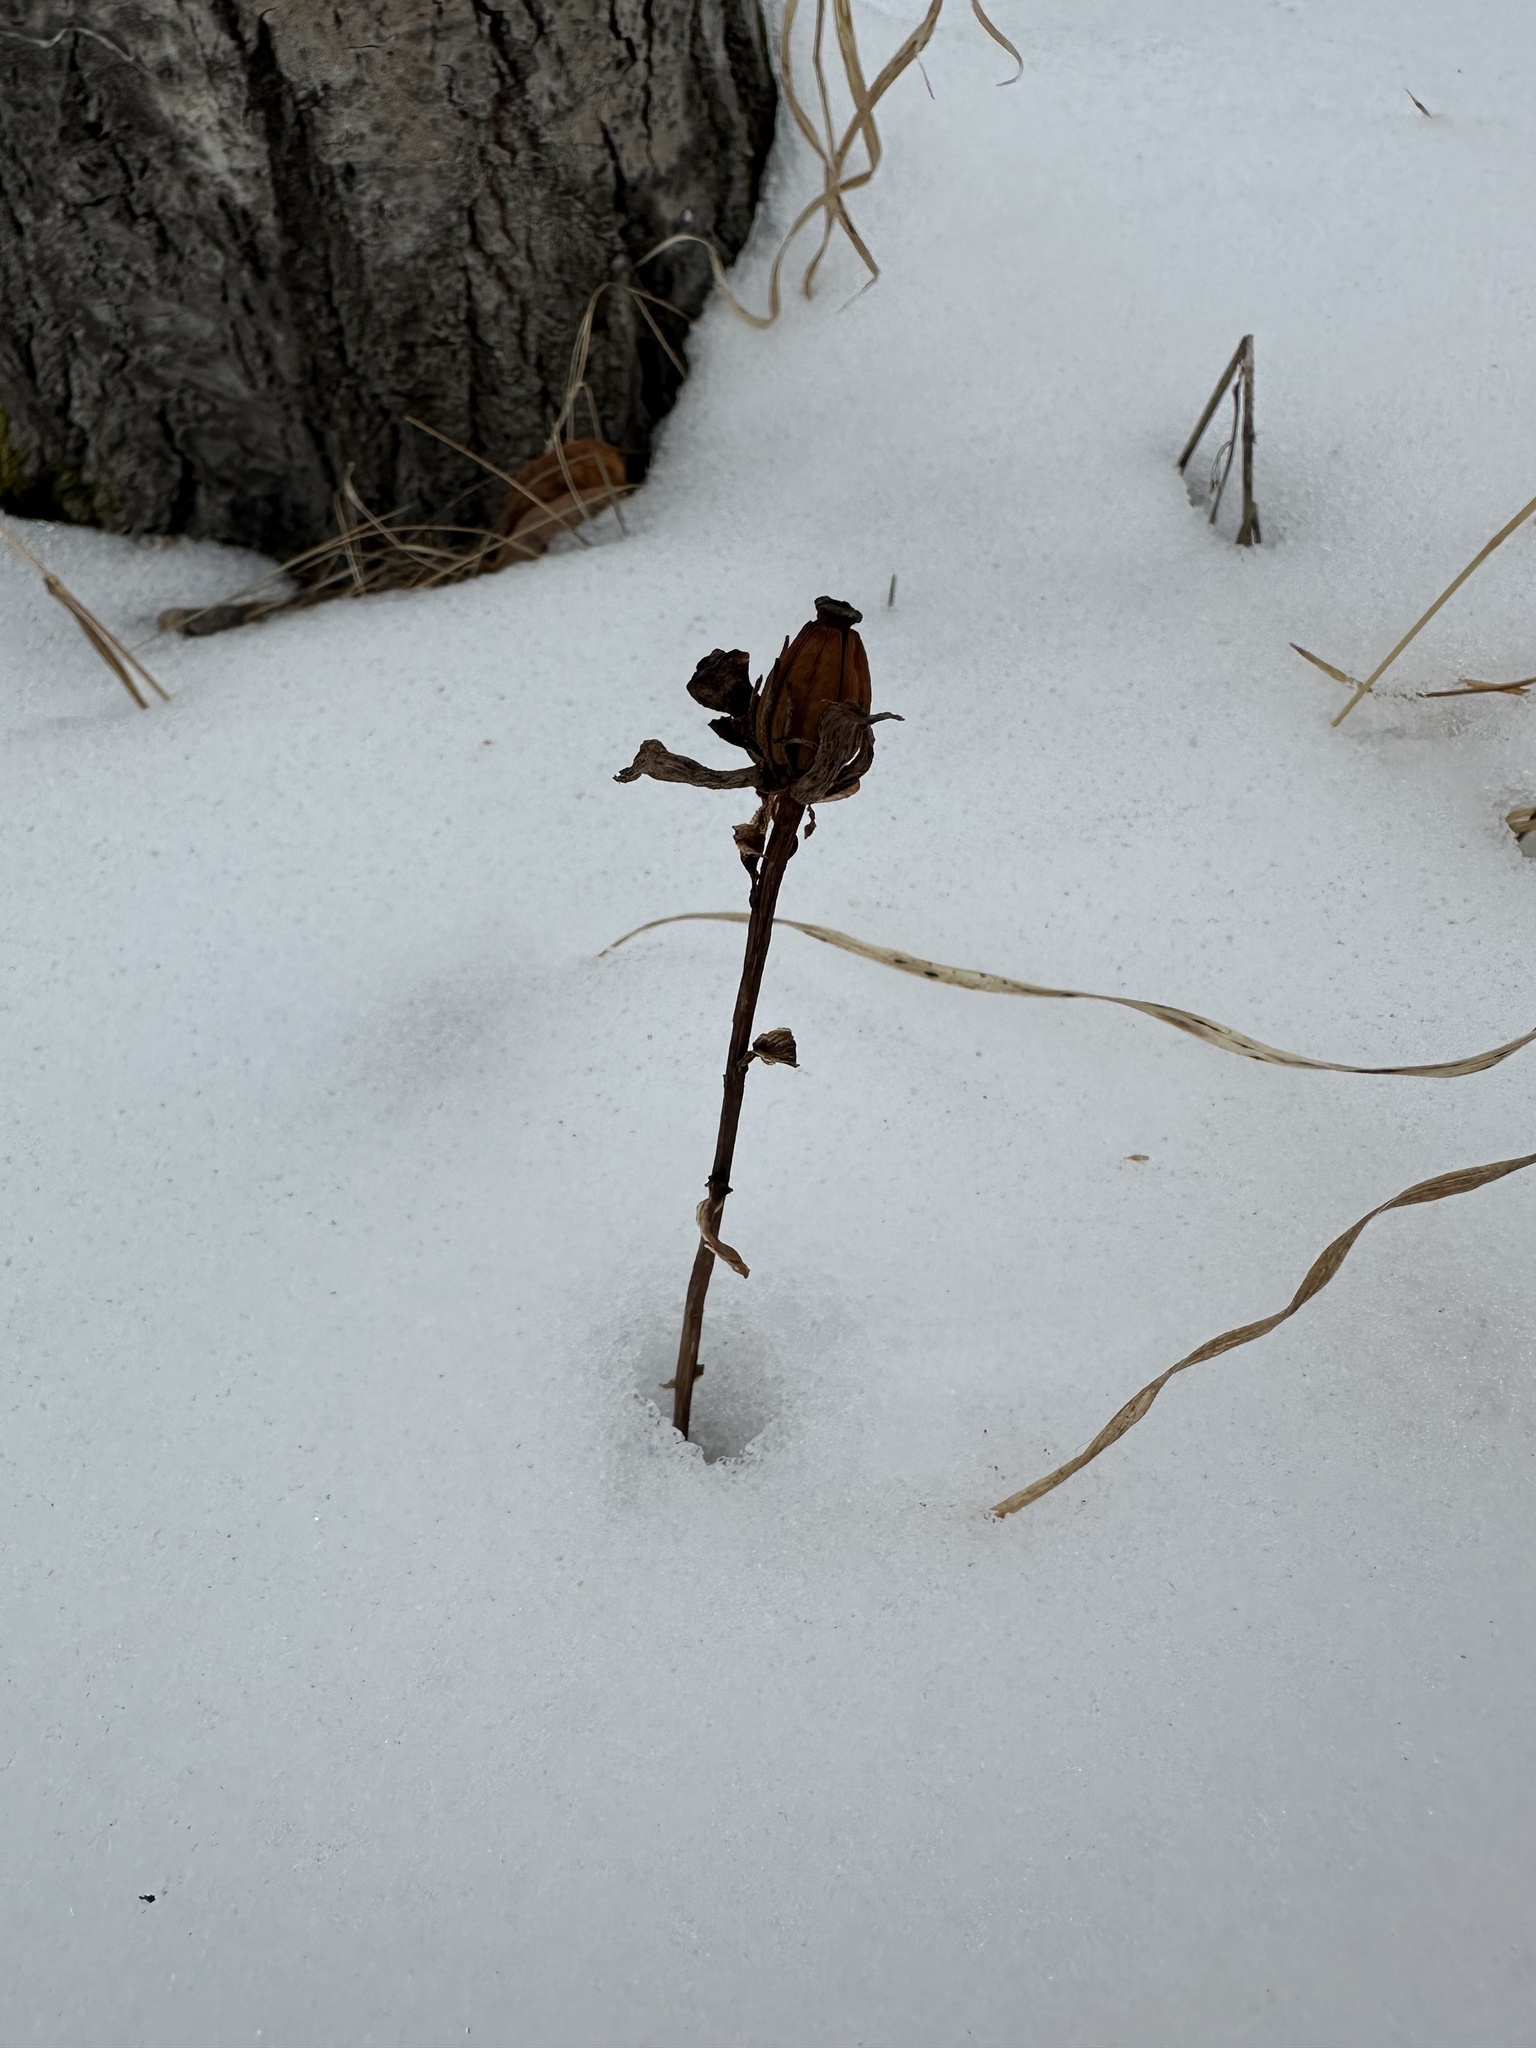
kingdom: Plantae
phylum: Tracheophyta
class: Magnoliopsida
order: Ericales
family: Ericaceae
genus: Monotropa
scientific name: Monotropa uniflora
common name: Convulsion root
